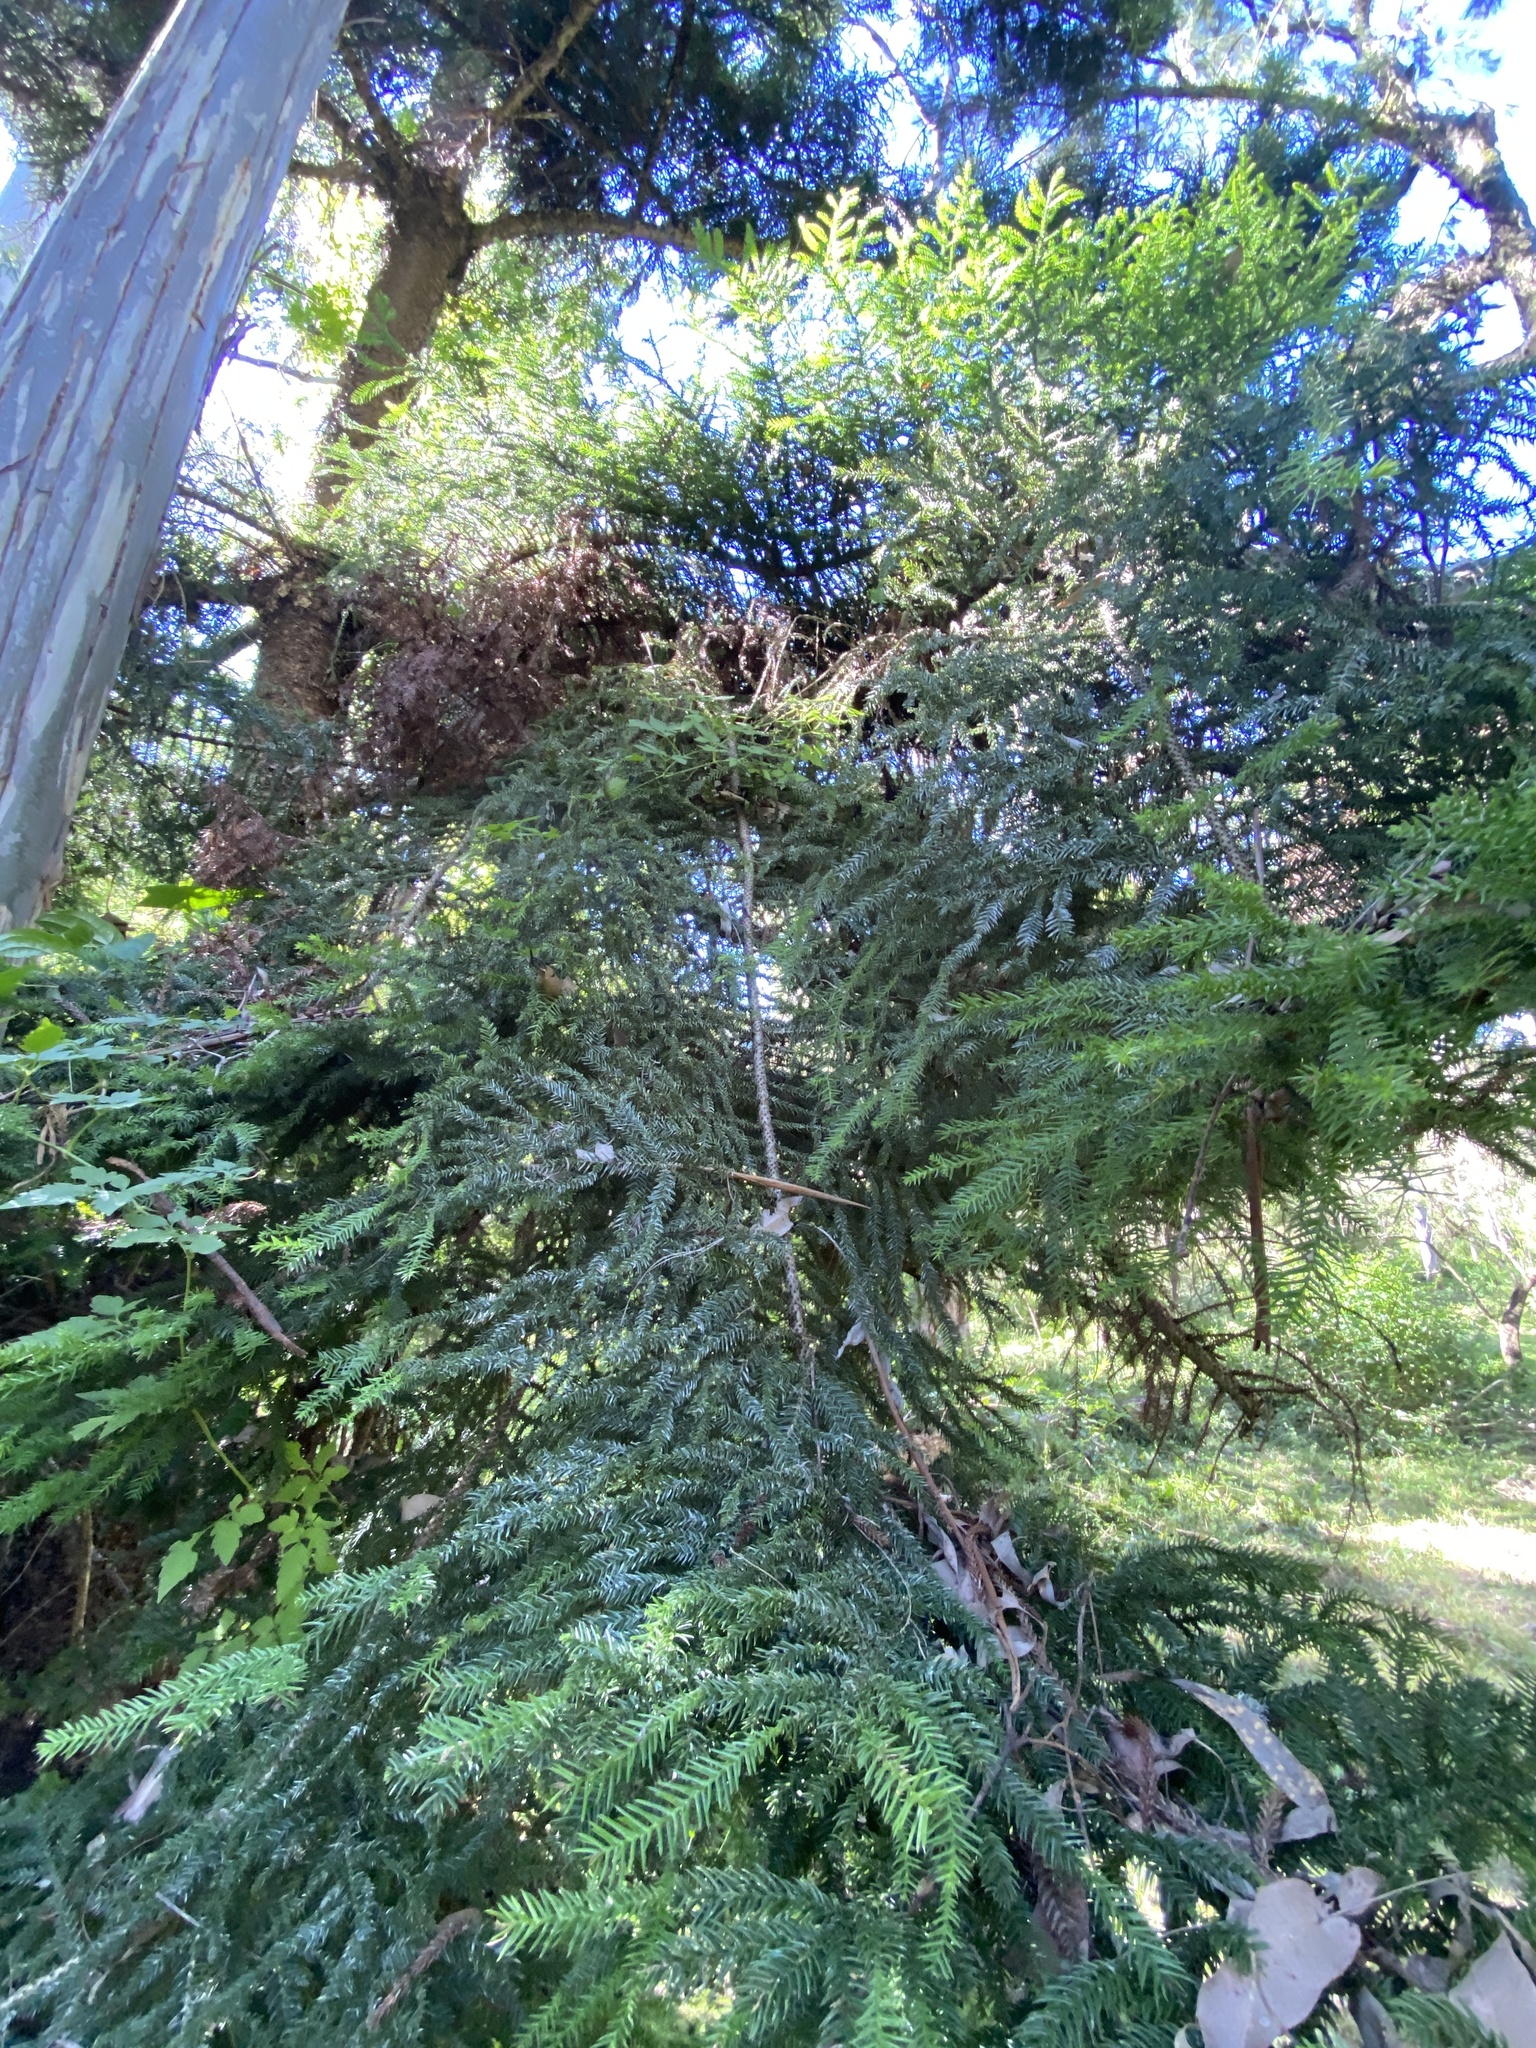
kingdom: Plantae
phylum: Tracheophyta
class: Pinopsida
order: Pinales
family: Araucariaceae
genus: Araucaria
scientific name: Araucaria cunninghamii
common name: Colonial pine
